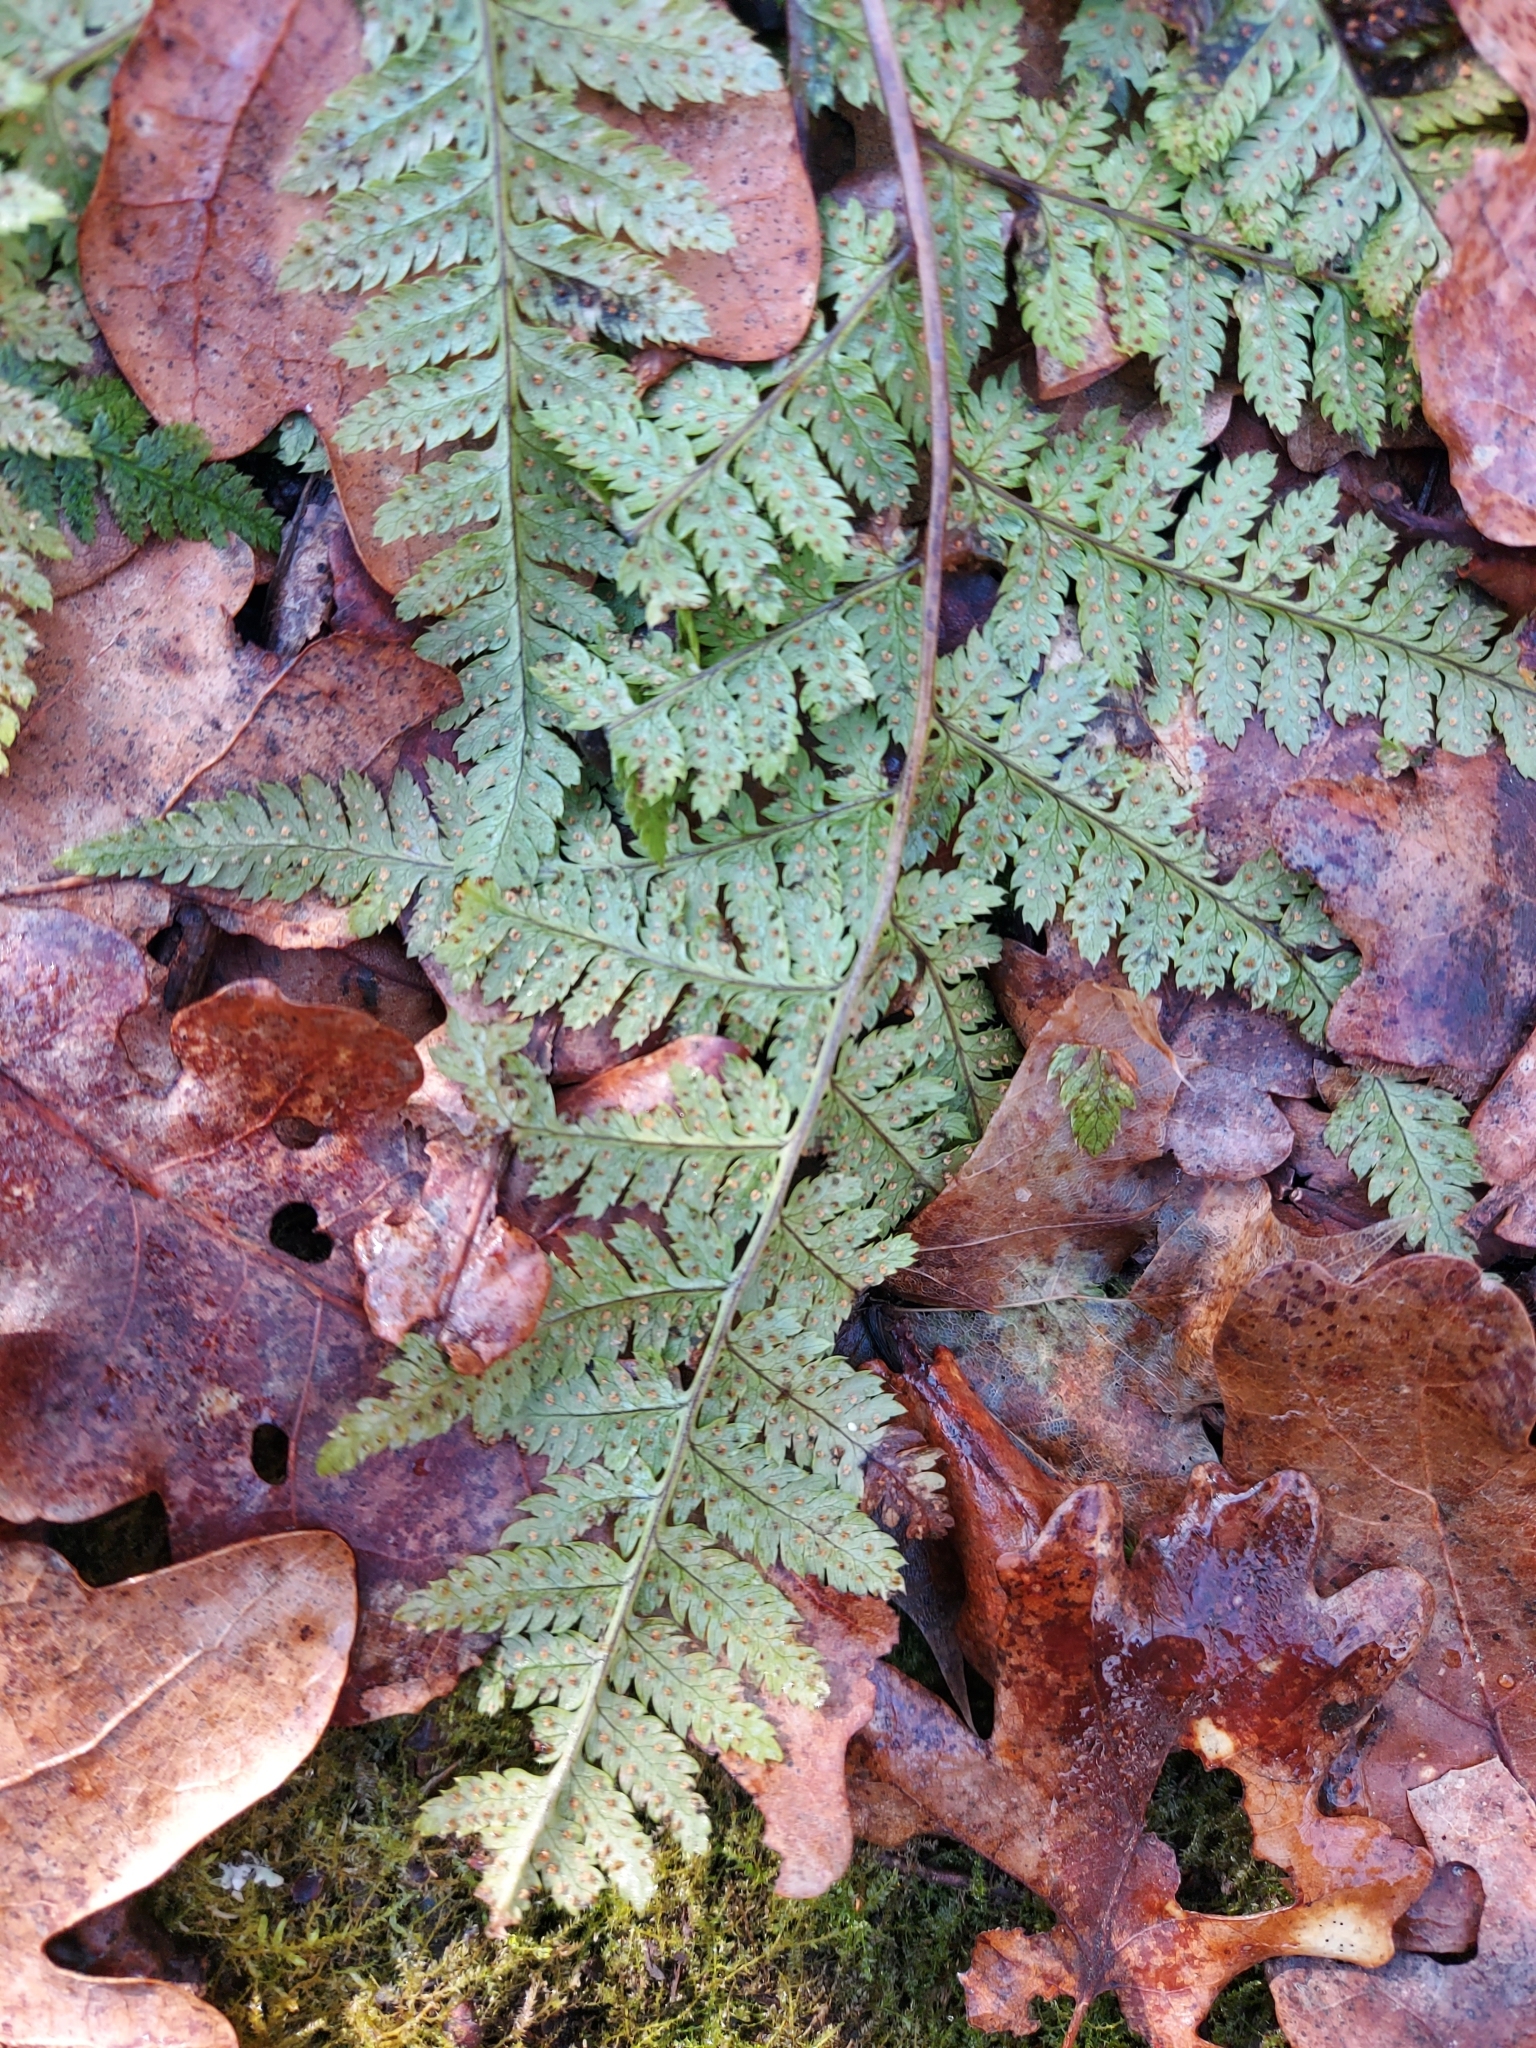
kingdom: Plantae
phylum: Tracheophyta
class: Polypodiopsida
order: Polypodiales
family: Dryopteridaceae
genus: Dryopteris
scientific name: Dryopteris carthusiana
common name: Narrow buckler-fern
